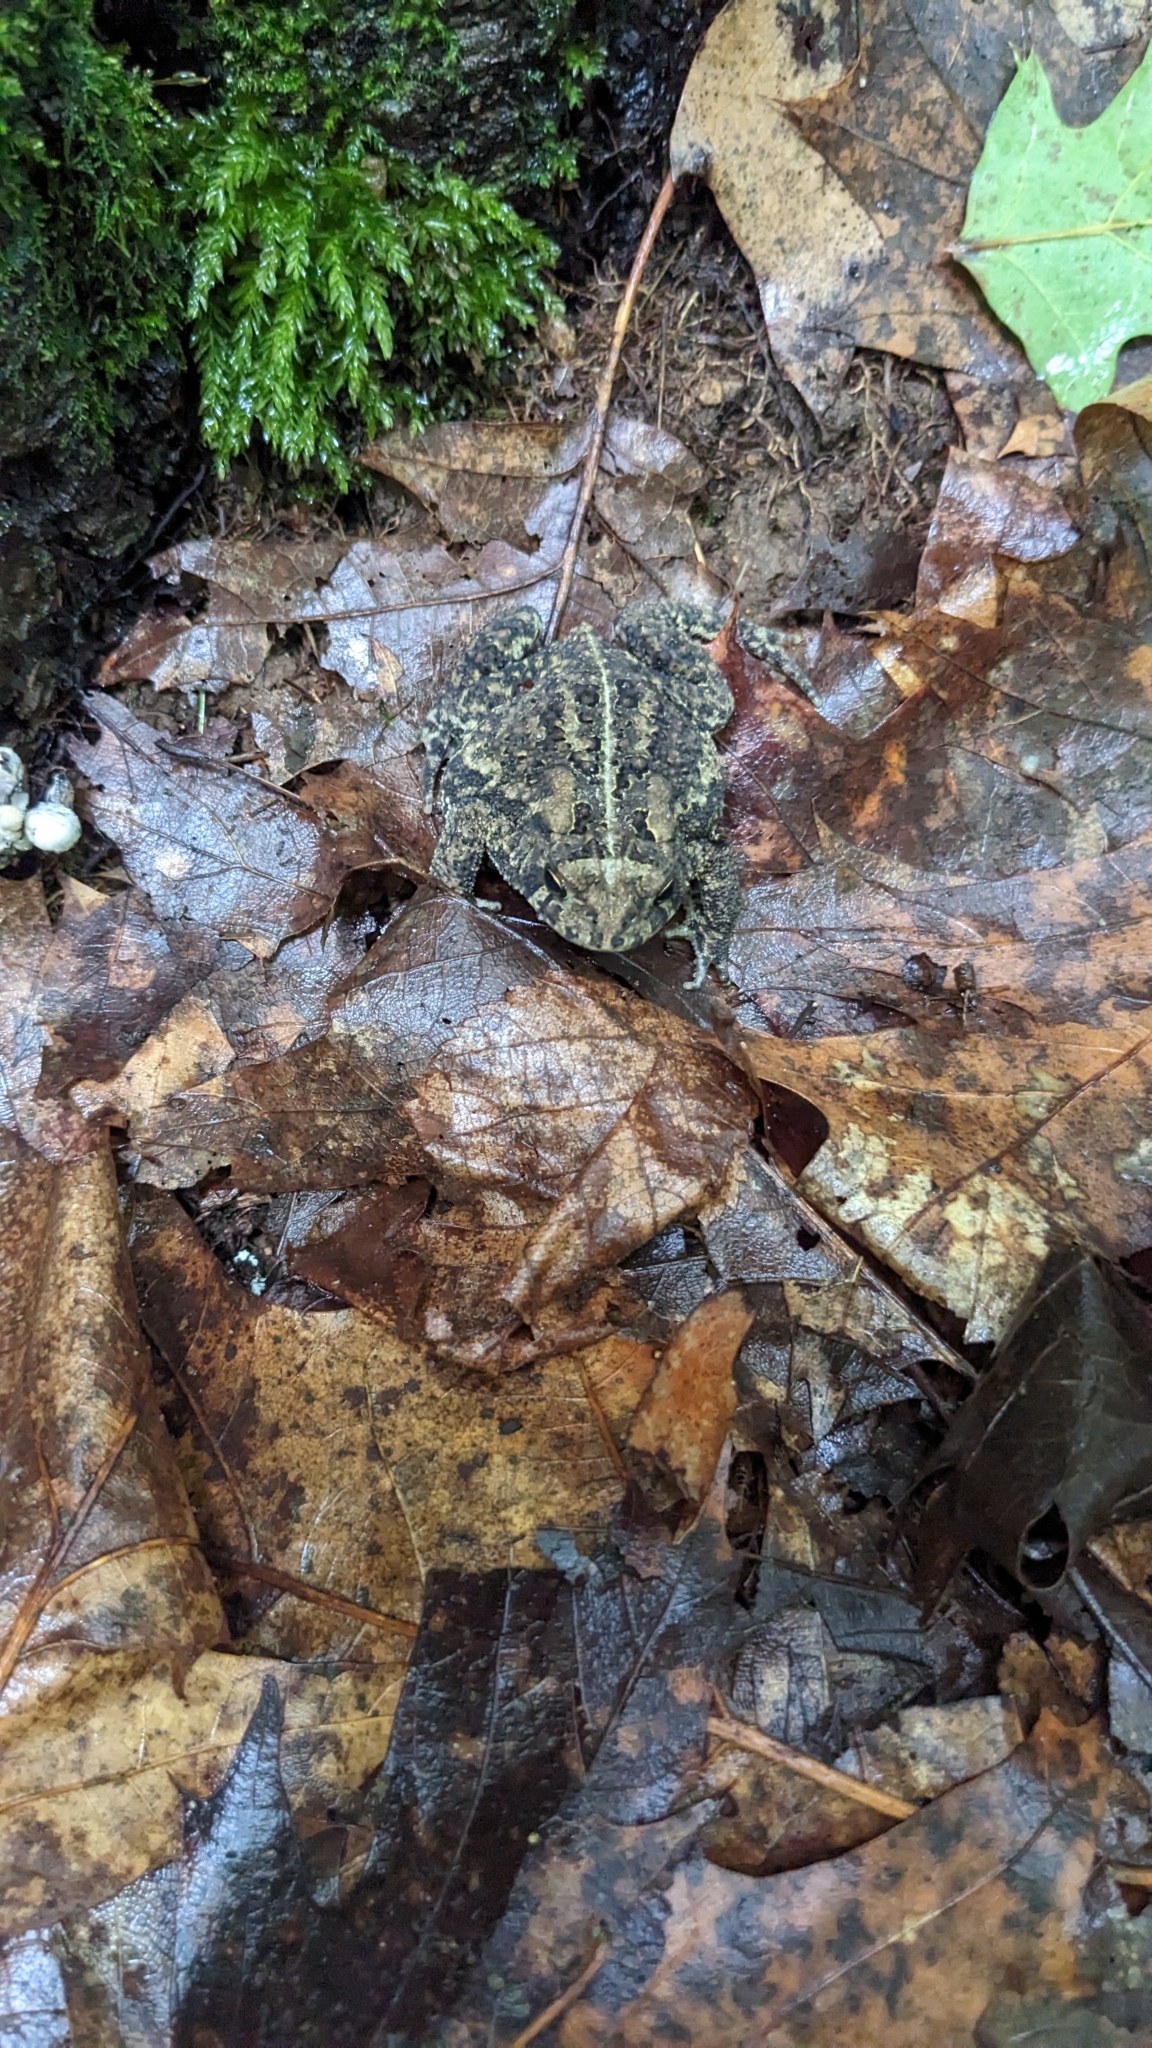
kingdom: Animalia
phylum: Chordata
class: Amphibia
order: Anura
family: Bufonidae
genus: Anaxyrus
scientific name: Anaxyrus americanus
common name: American toad
